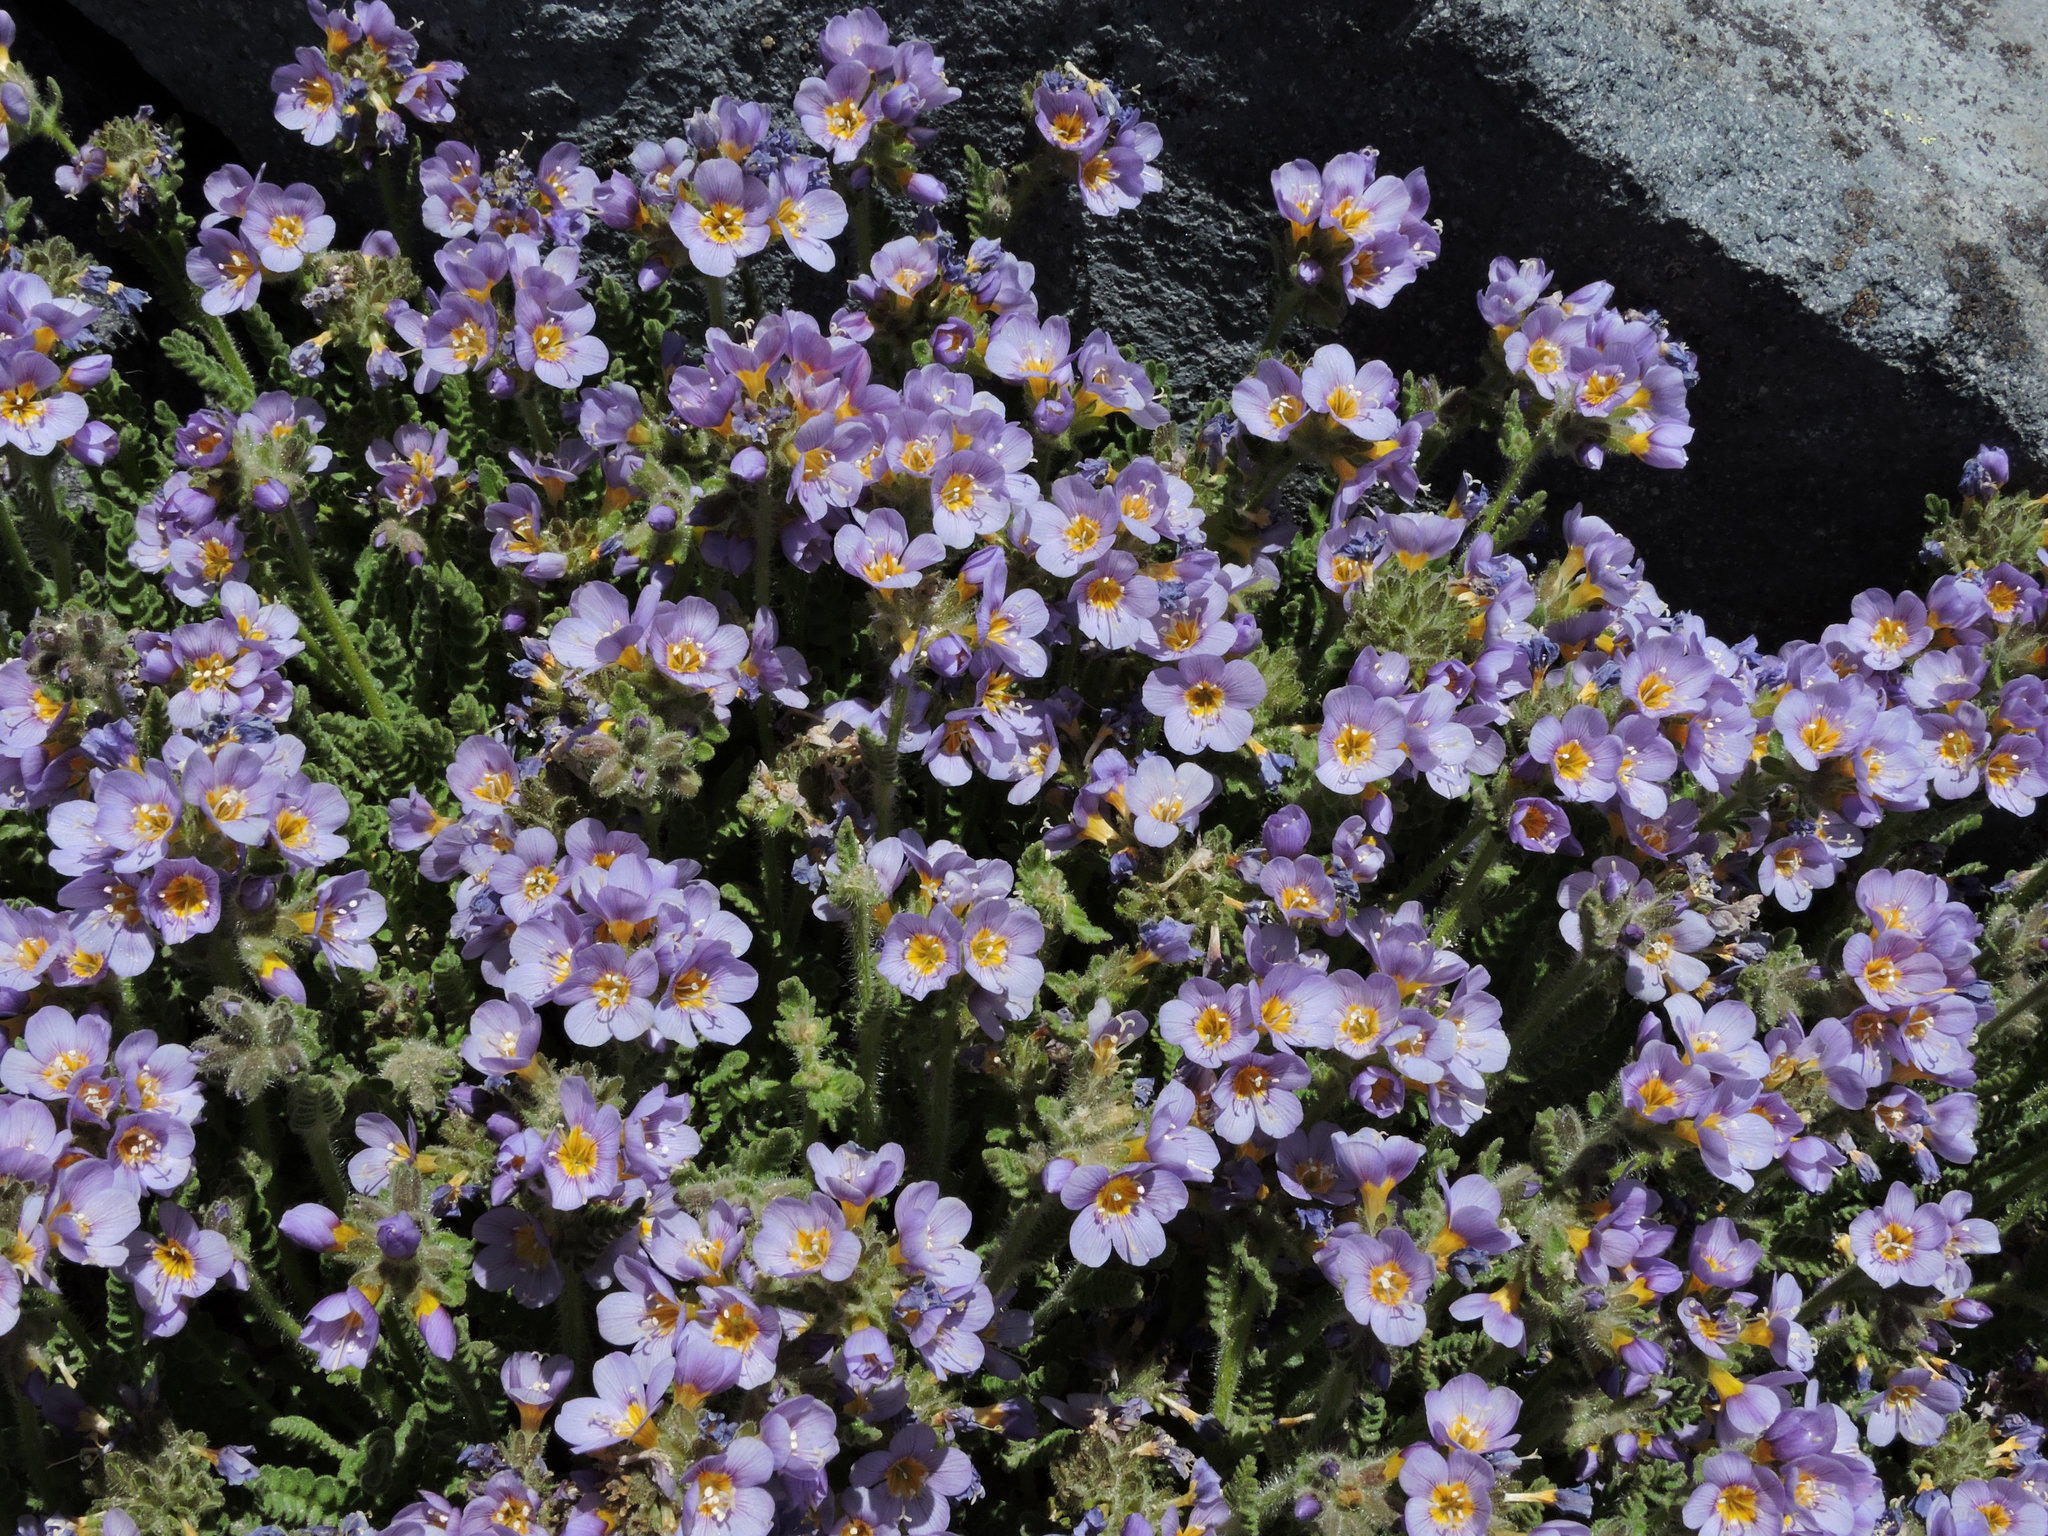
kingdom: Plantae
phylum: Tracheophyta
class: Magnoliopsida
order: Ericales
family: Polemoniaceae
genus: Polemonium
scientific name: Polemonium elegans
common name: Elegant jacob's-ladder
